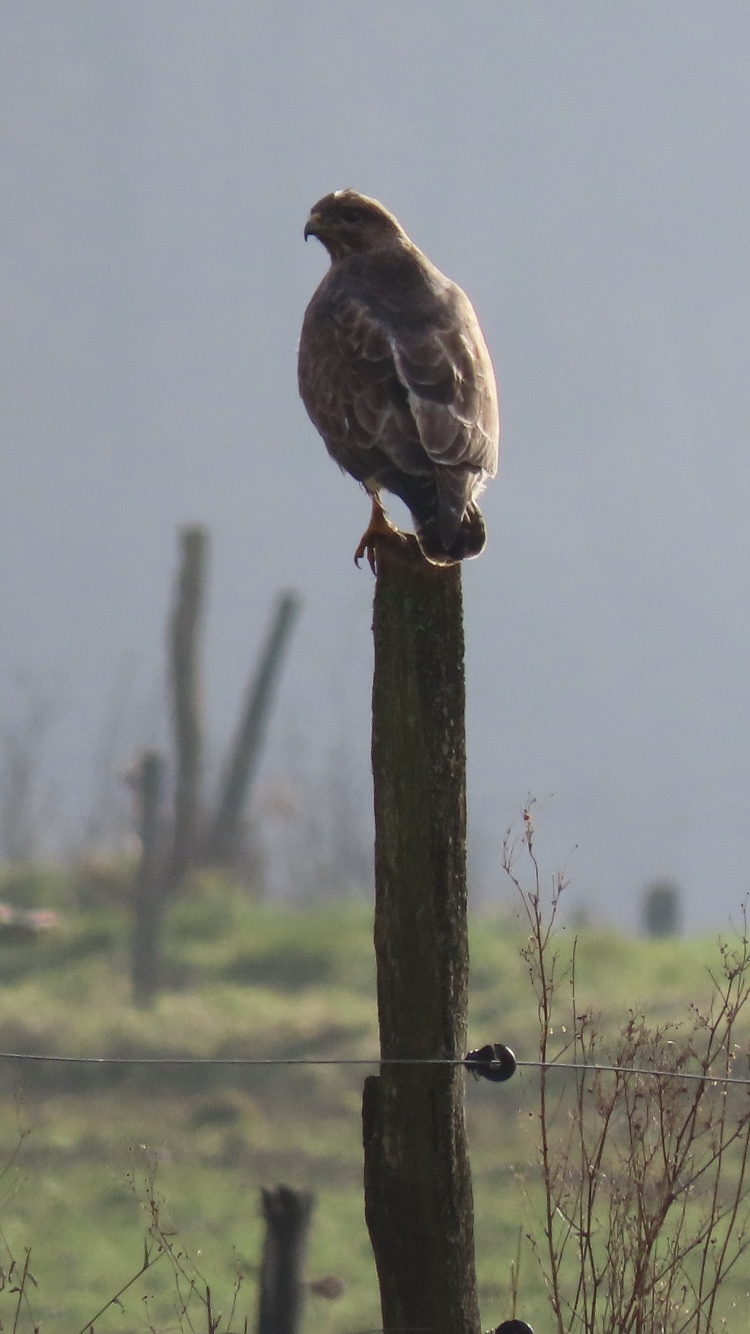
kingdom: Animalia
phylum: Chordata
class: Aves
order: Accipitriformes
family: Accipitridae
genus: Buteo
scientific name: Buteo buteo
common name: Common buzzard
